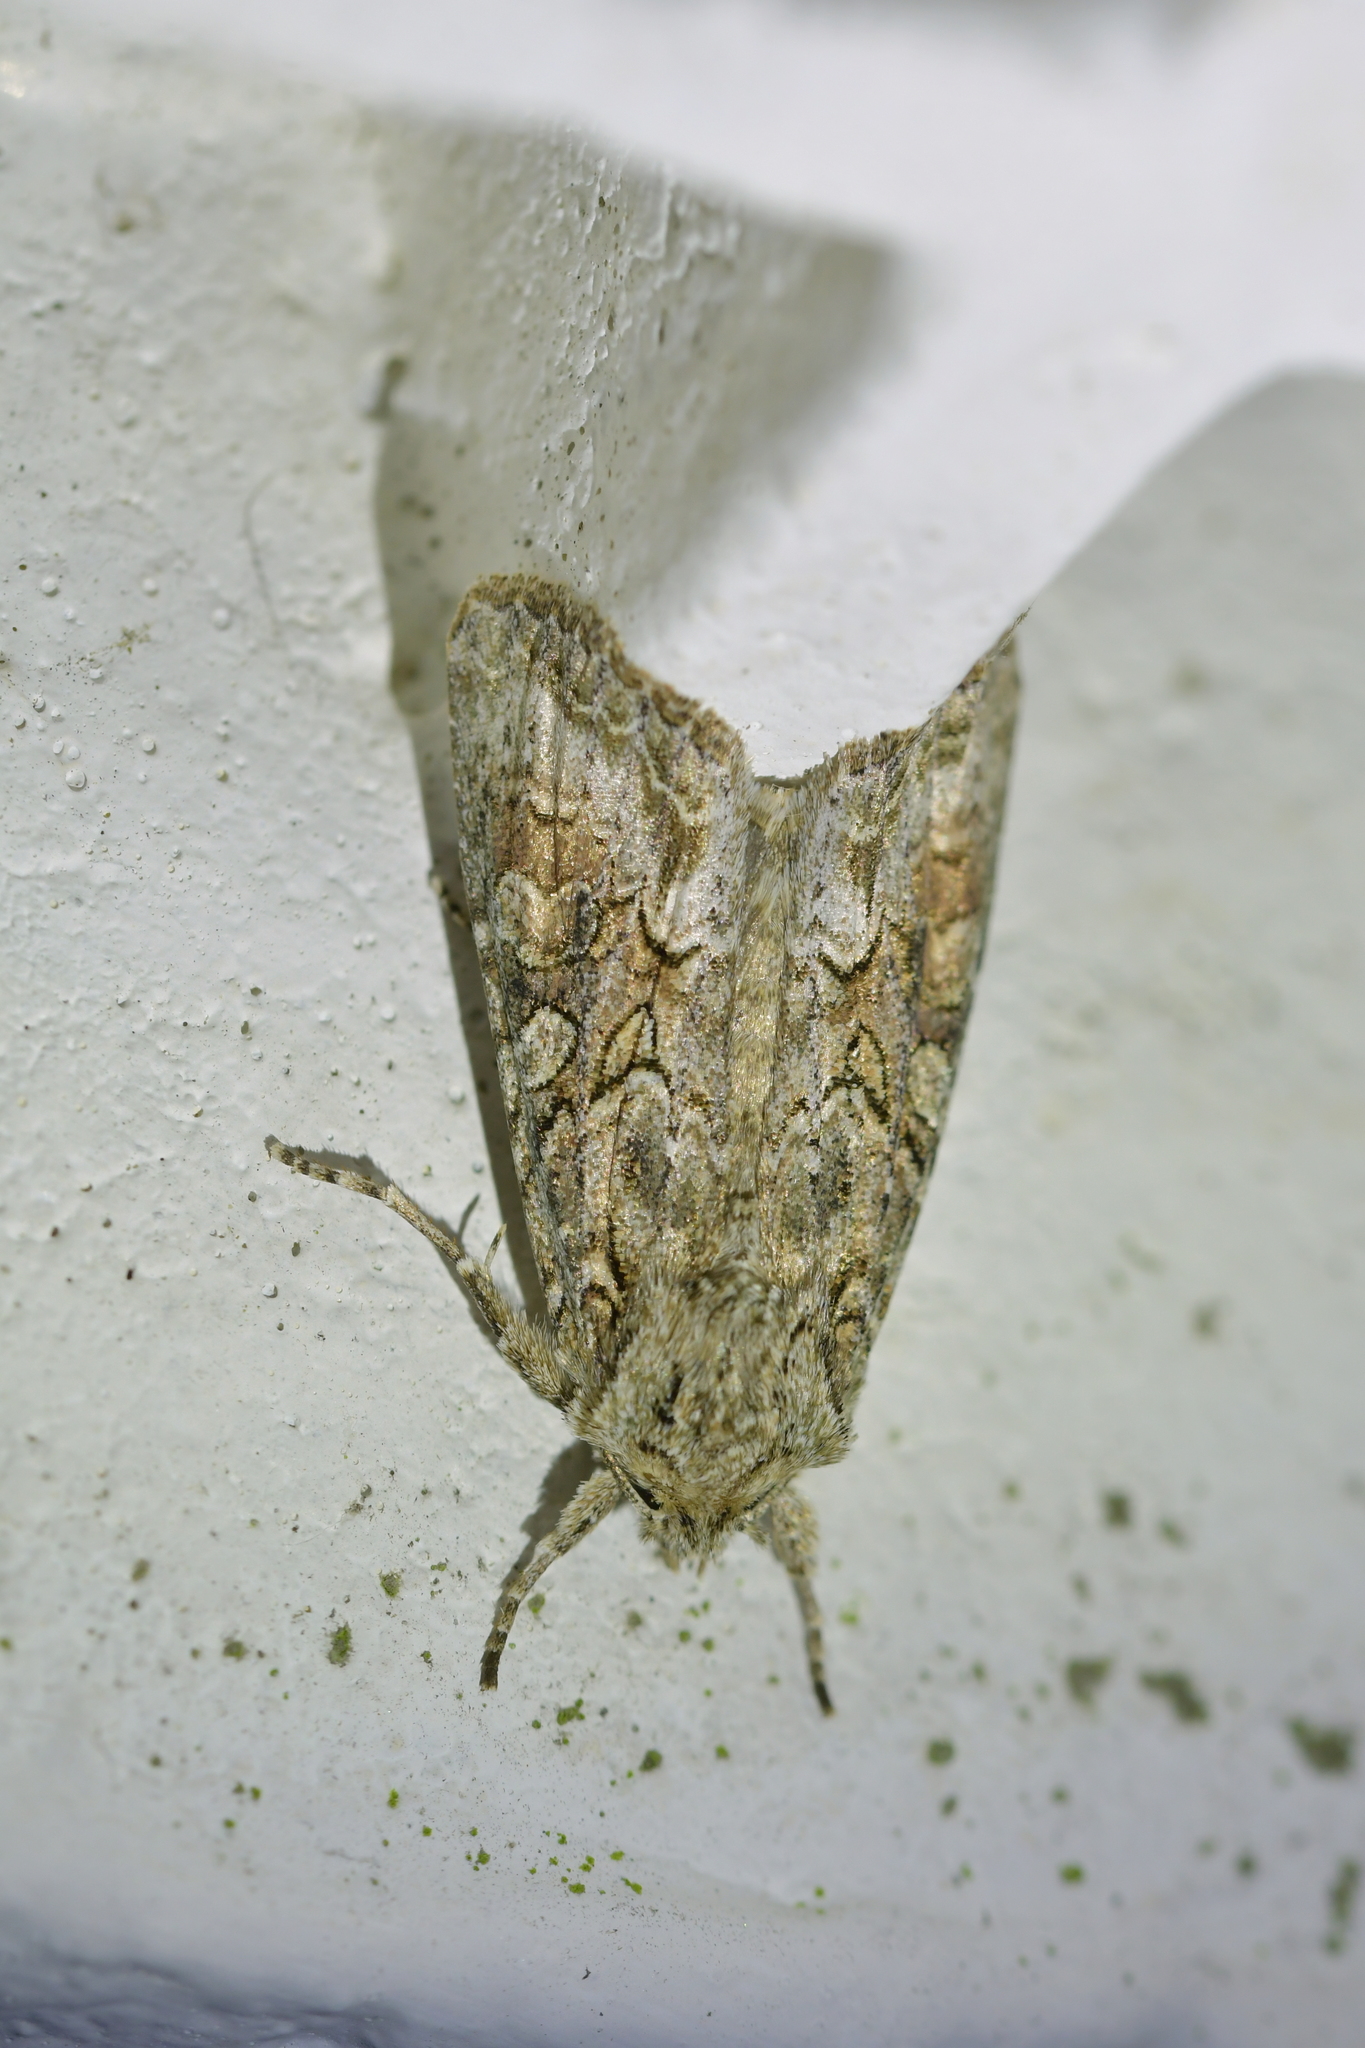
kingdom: Animalia
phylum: Arthropoda
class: Insecta
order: Lepidoptera
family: Noctuidae
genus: Ichneutica
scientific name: Ichneutica mutans
